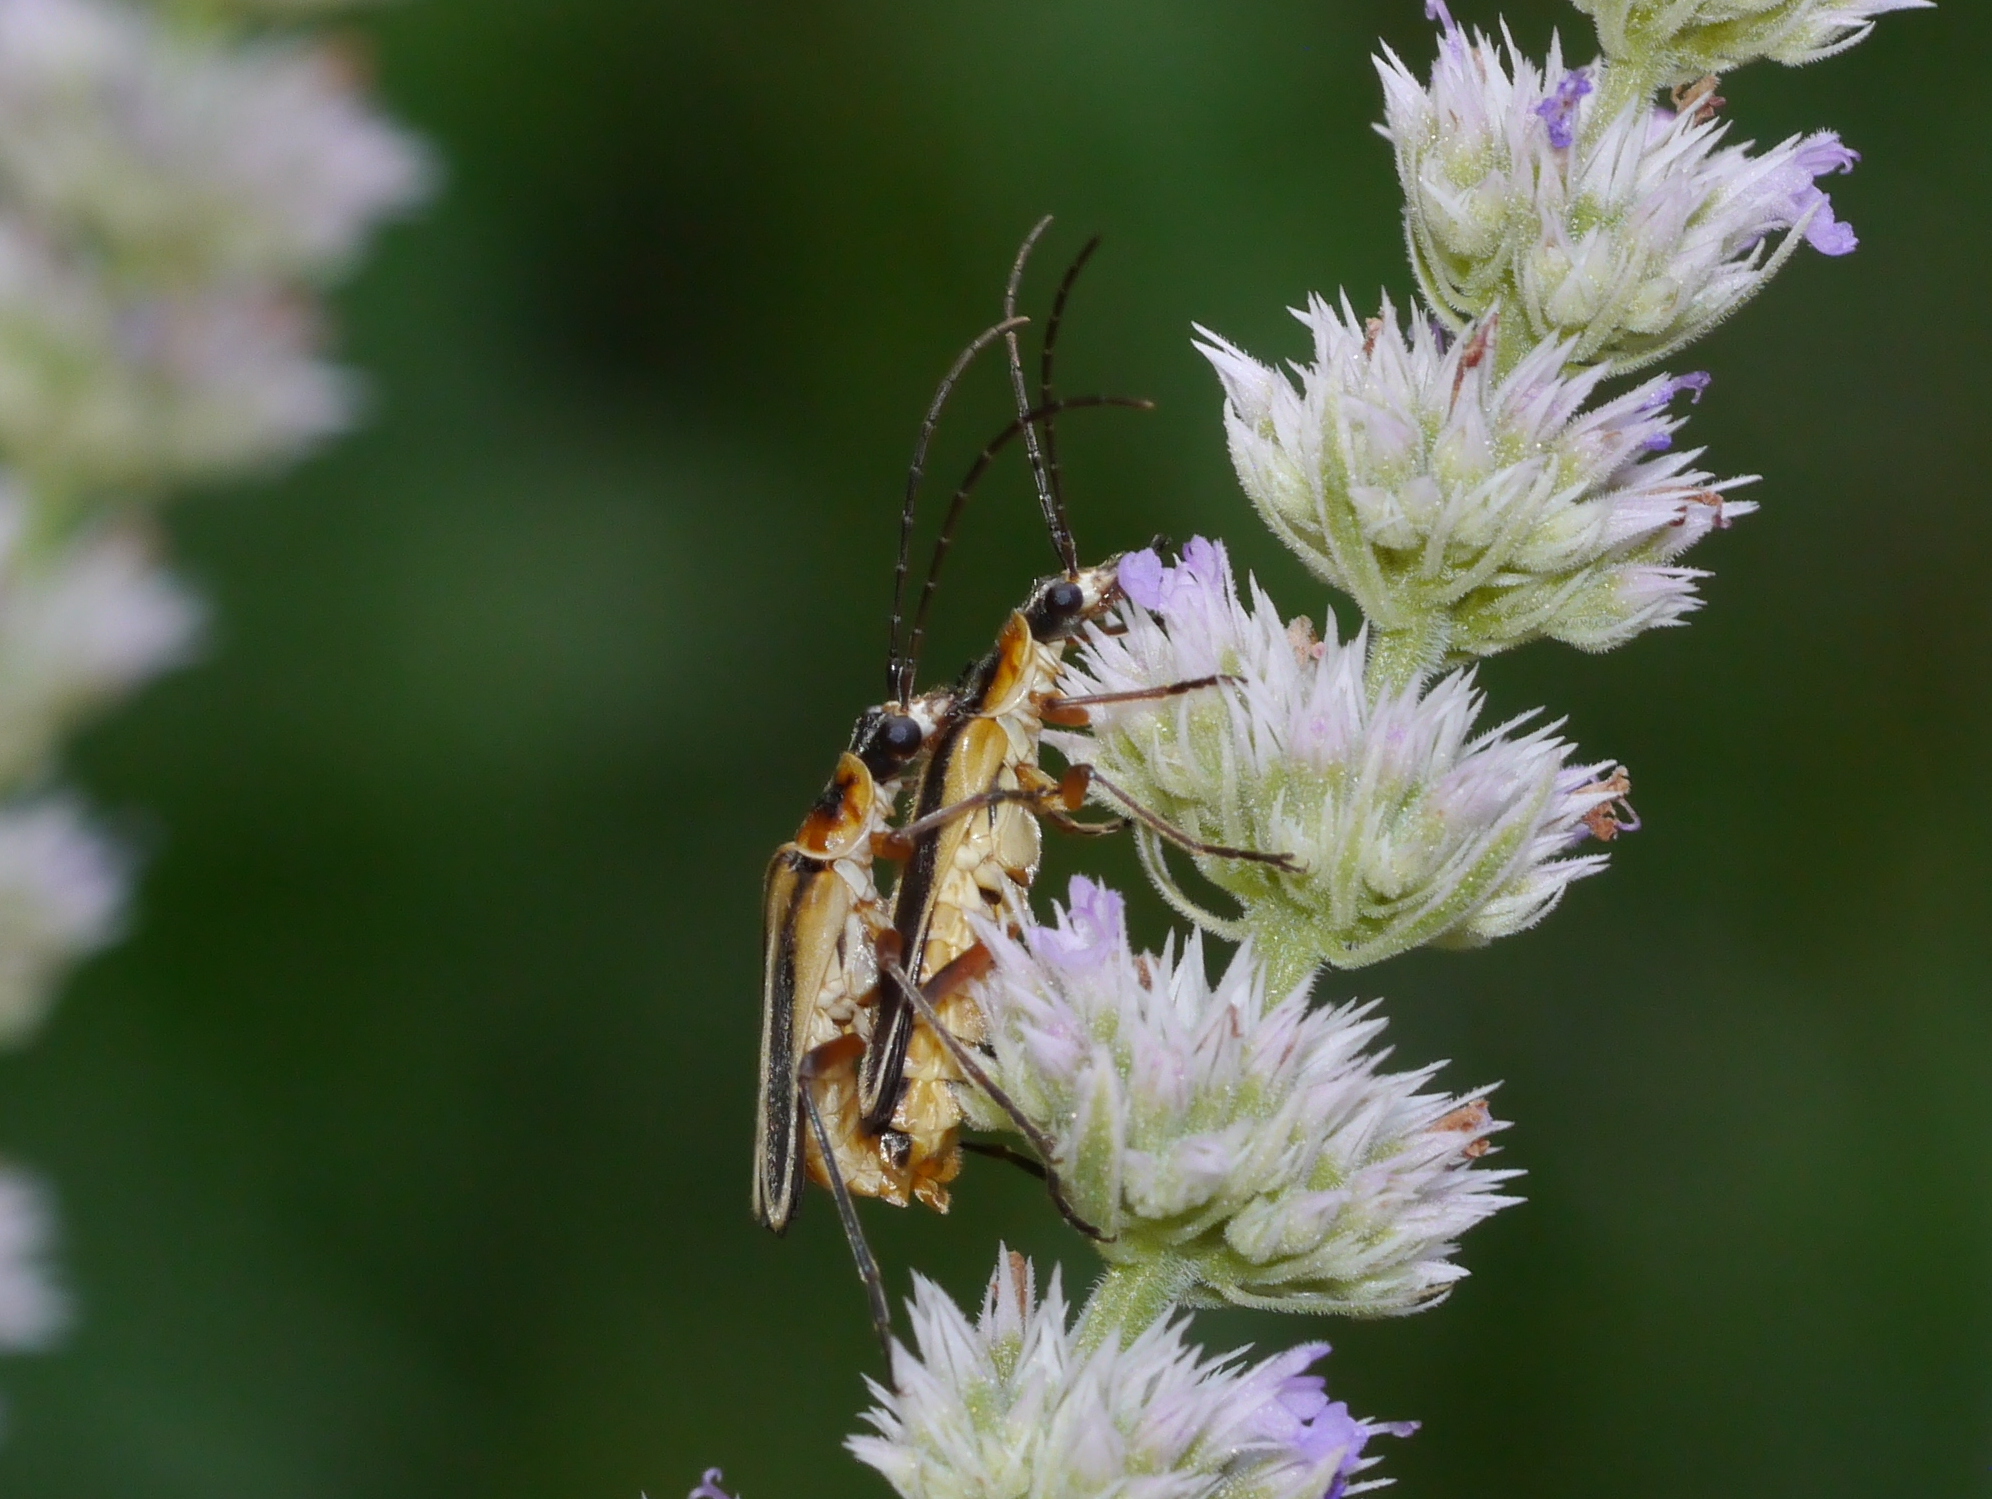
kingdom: Animalia
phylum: Arthropoda
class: Insecta
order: Coleoptera
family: Cantharidae
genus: Chauliognathus
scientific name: Chauliognathus lewisi
